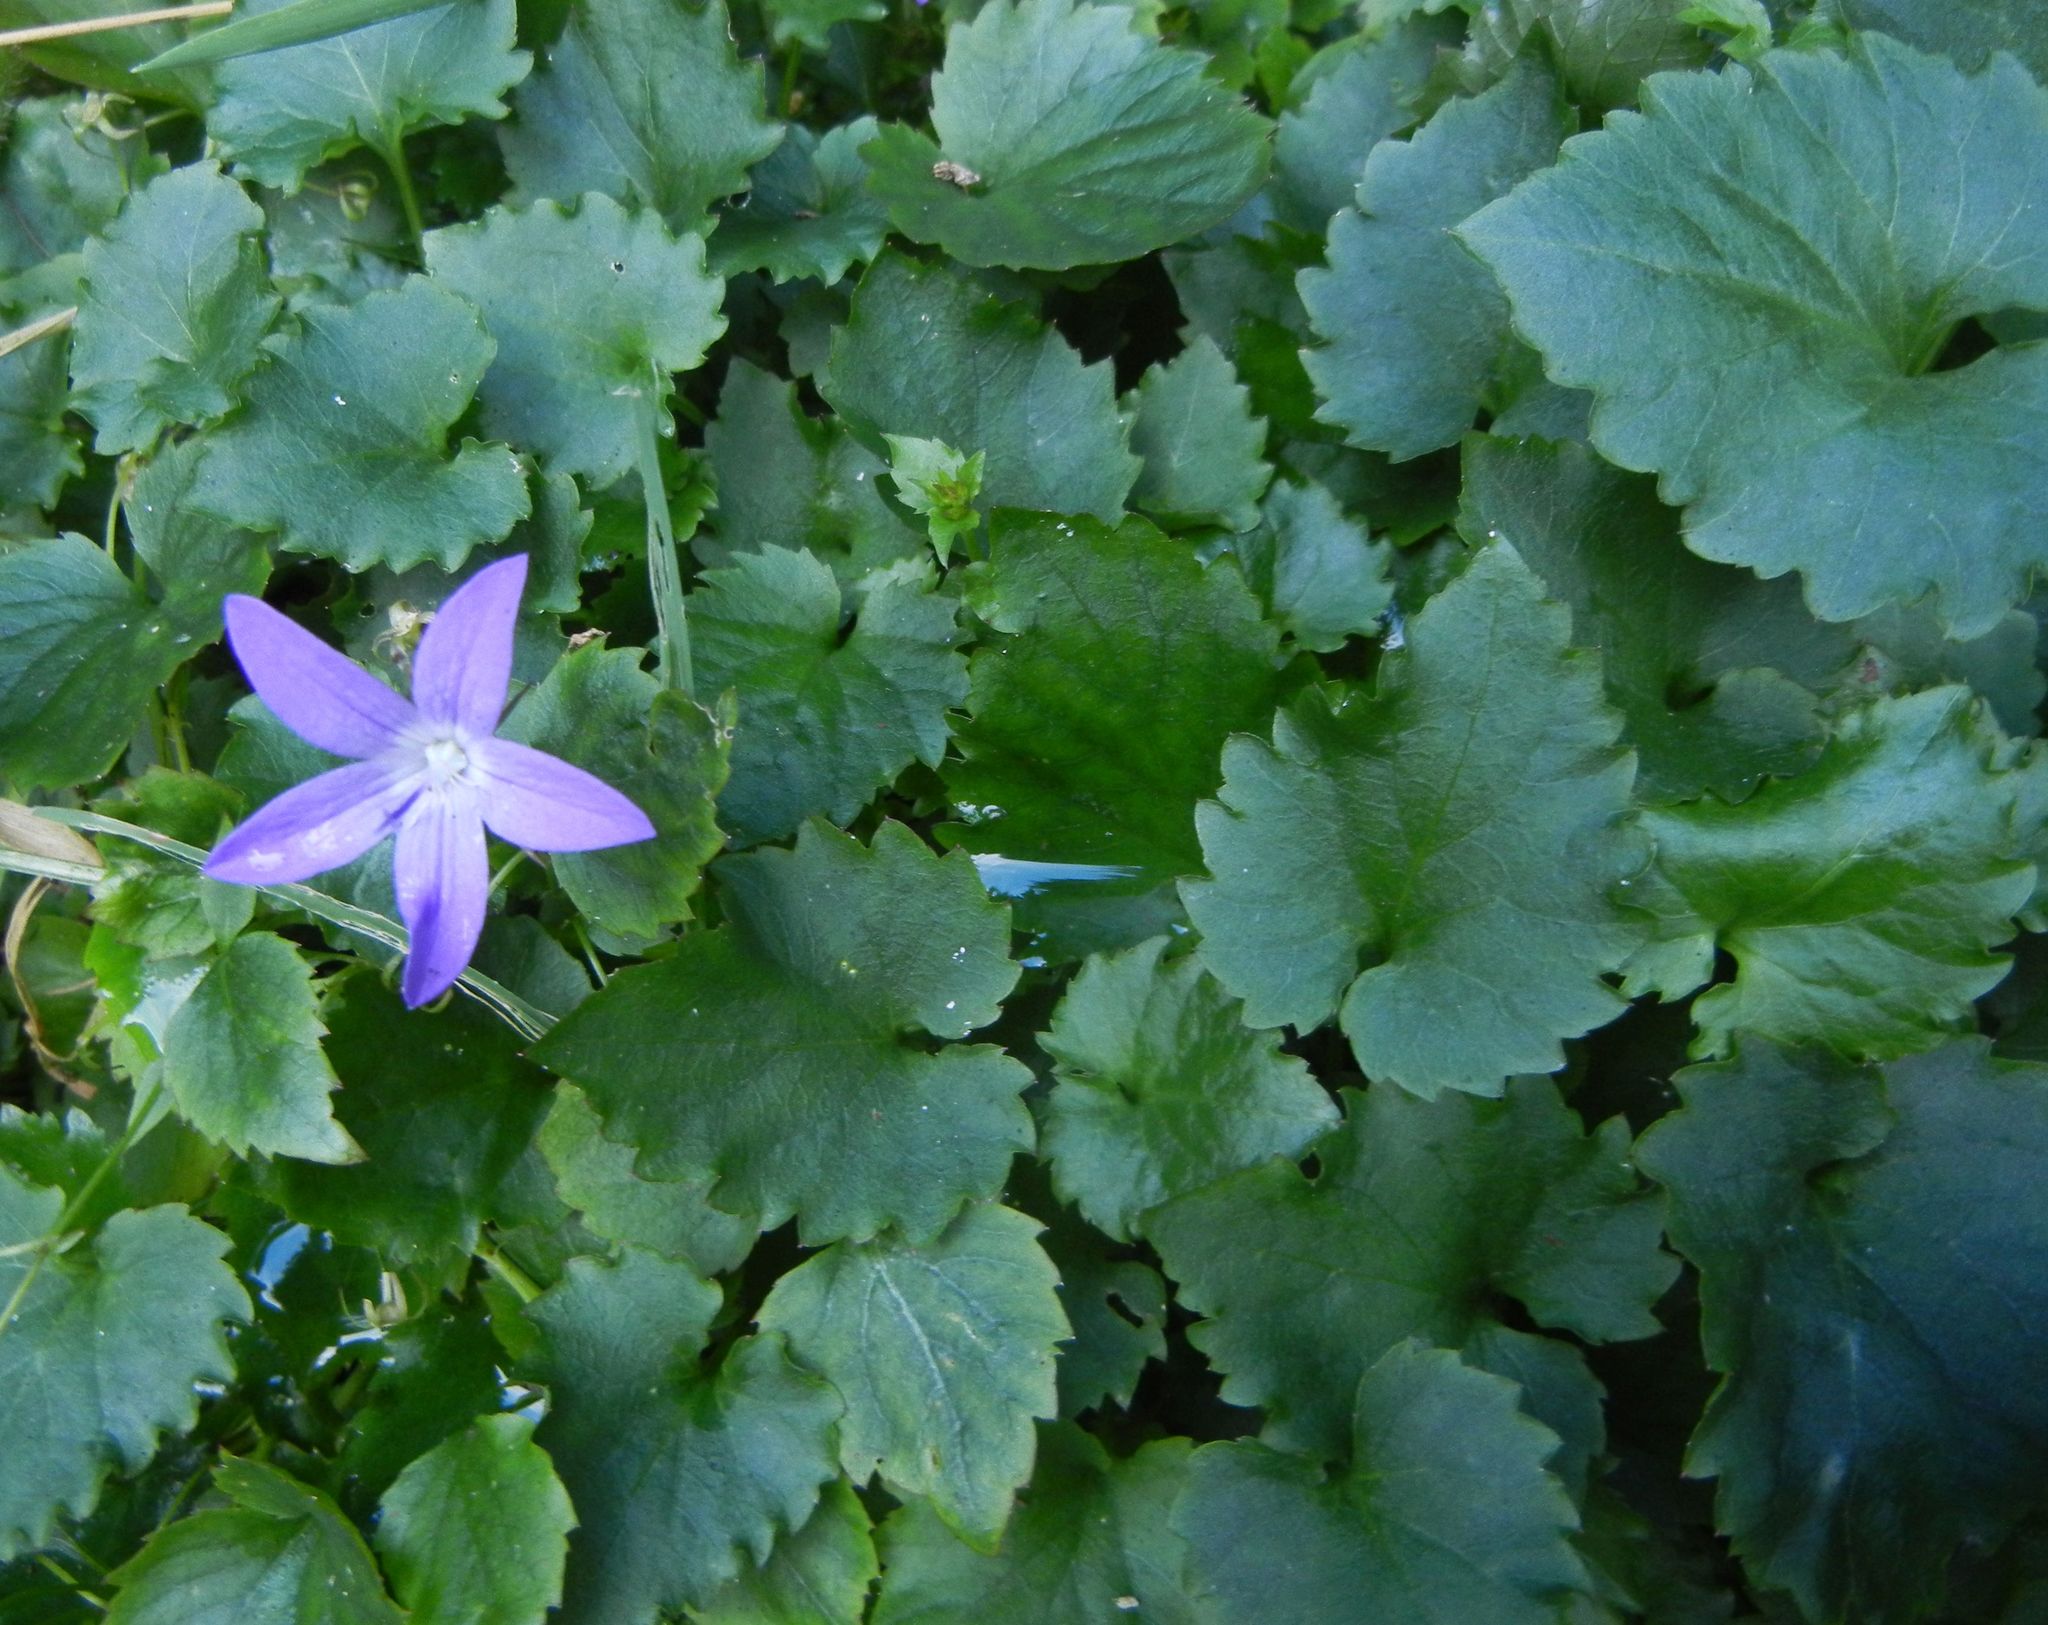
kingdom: Plantae
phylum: Tracheophyta
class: Magnoliopsida
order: Asterales
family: Campanulaceae
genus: Campanula
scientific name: Campanula poscharskyana
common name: Trailing bellflower
